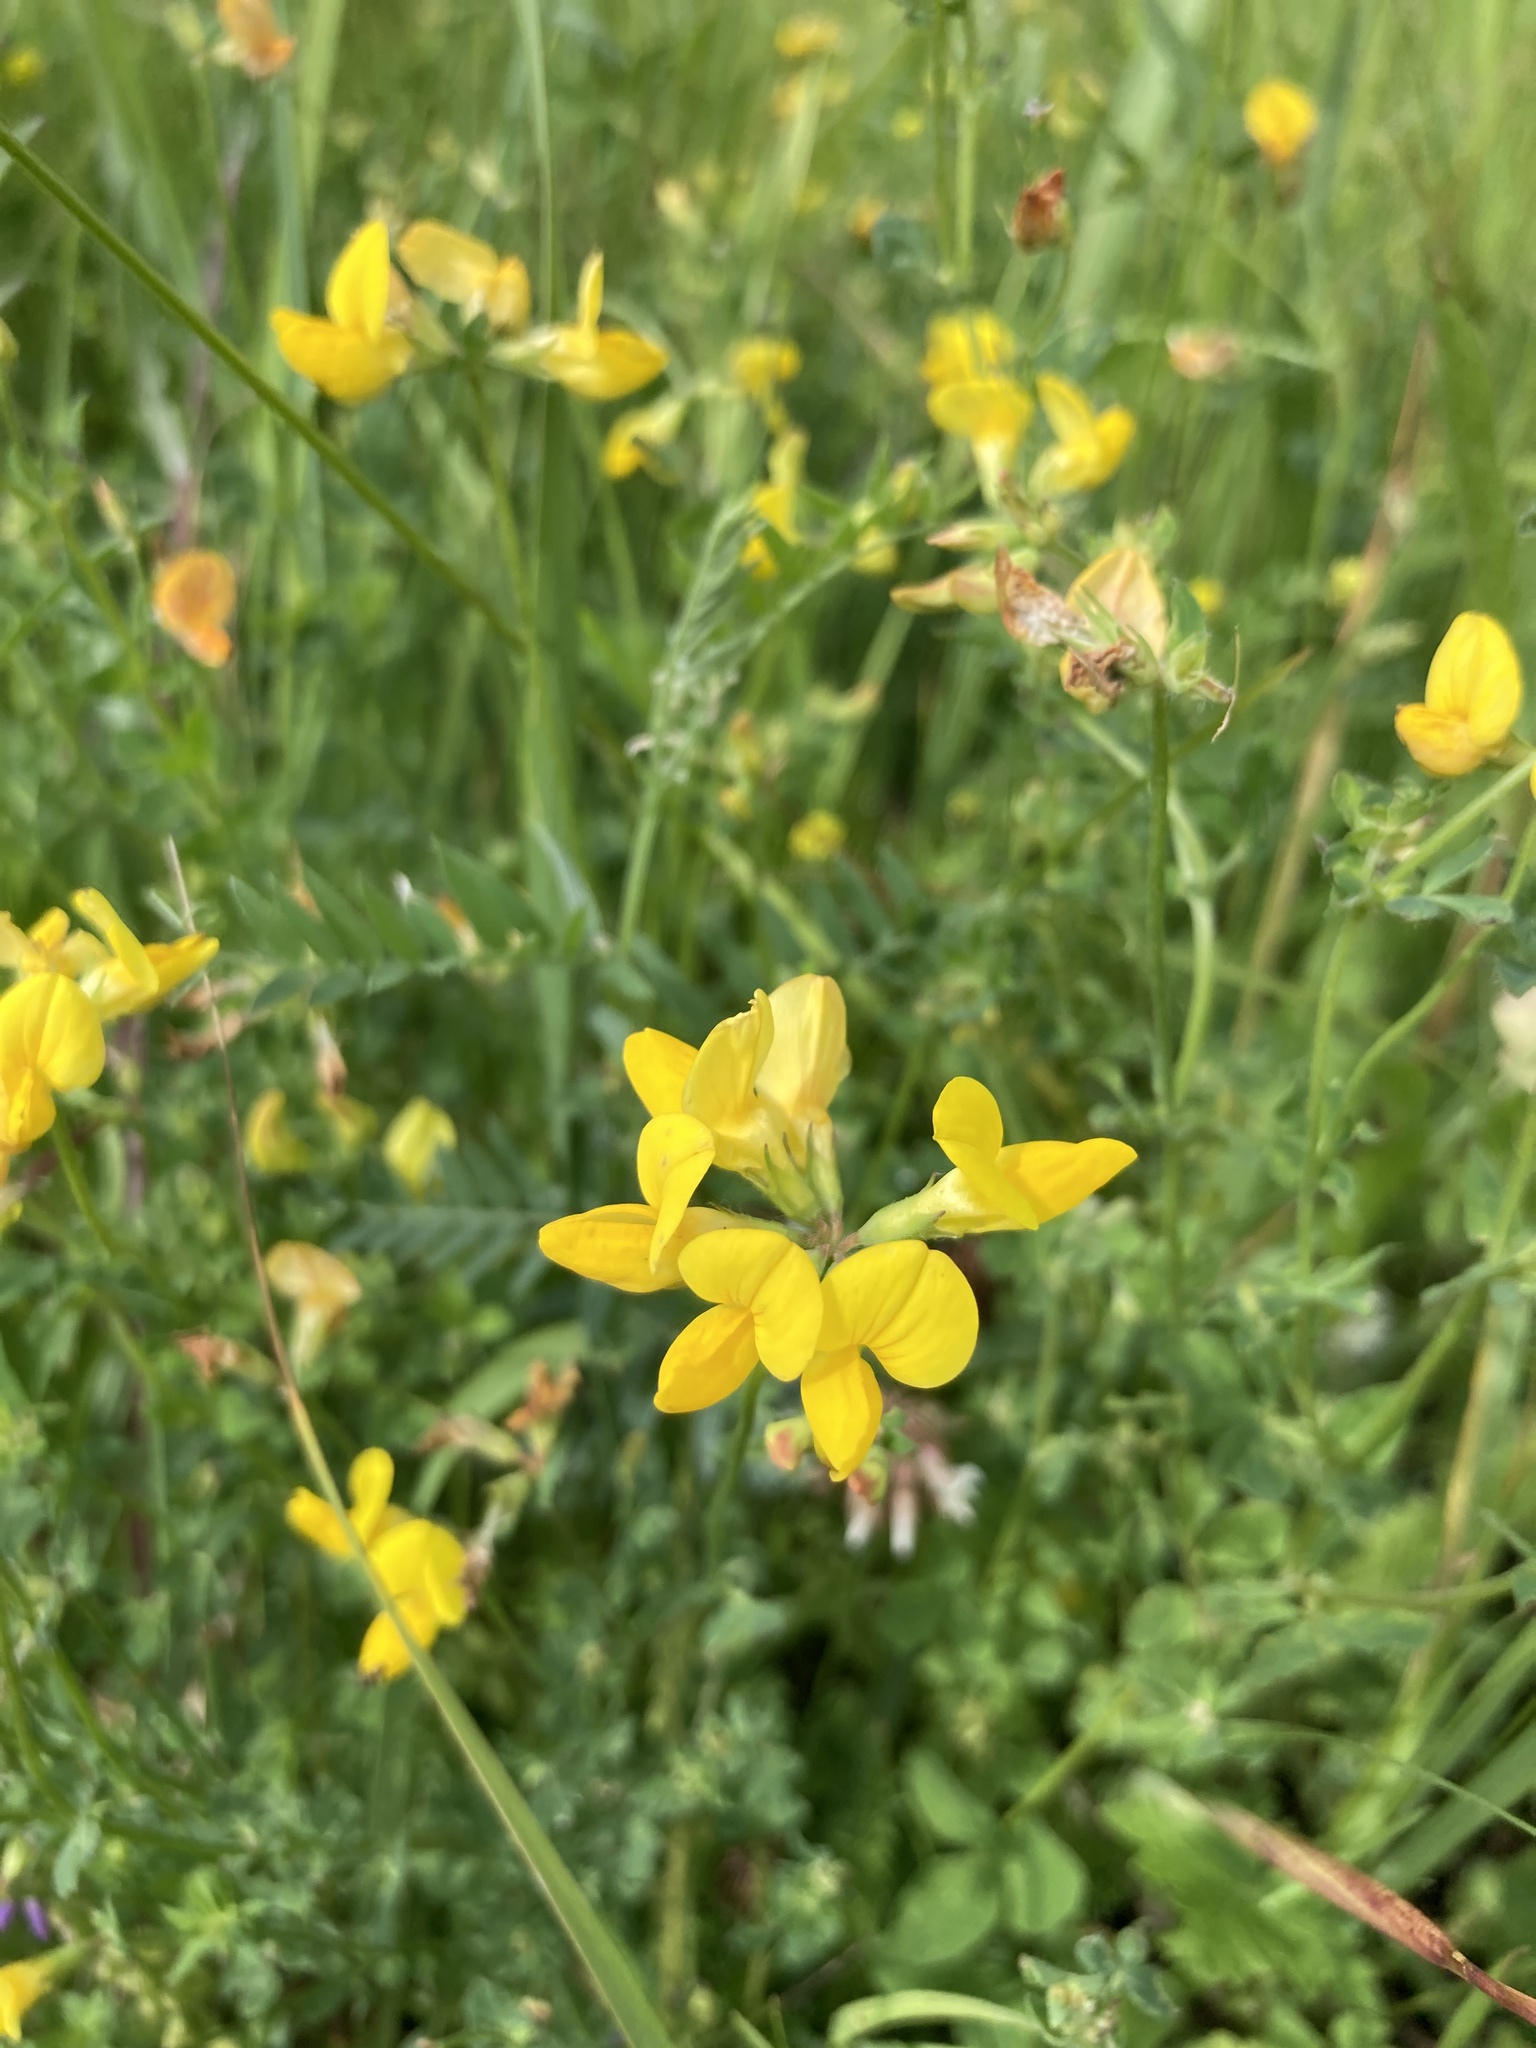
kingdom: Plantae
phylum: Tracheophyta
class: Magnoliopsida
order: Fabales
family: Fabaceae
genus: Lotus
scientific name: Lotus corniculatus
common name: Common bird's-foot-trefoil
